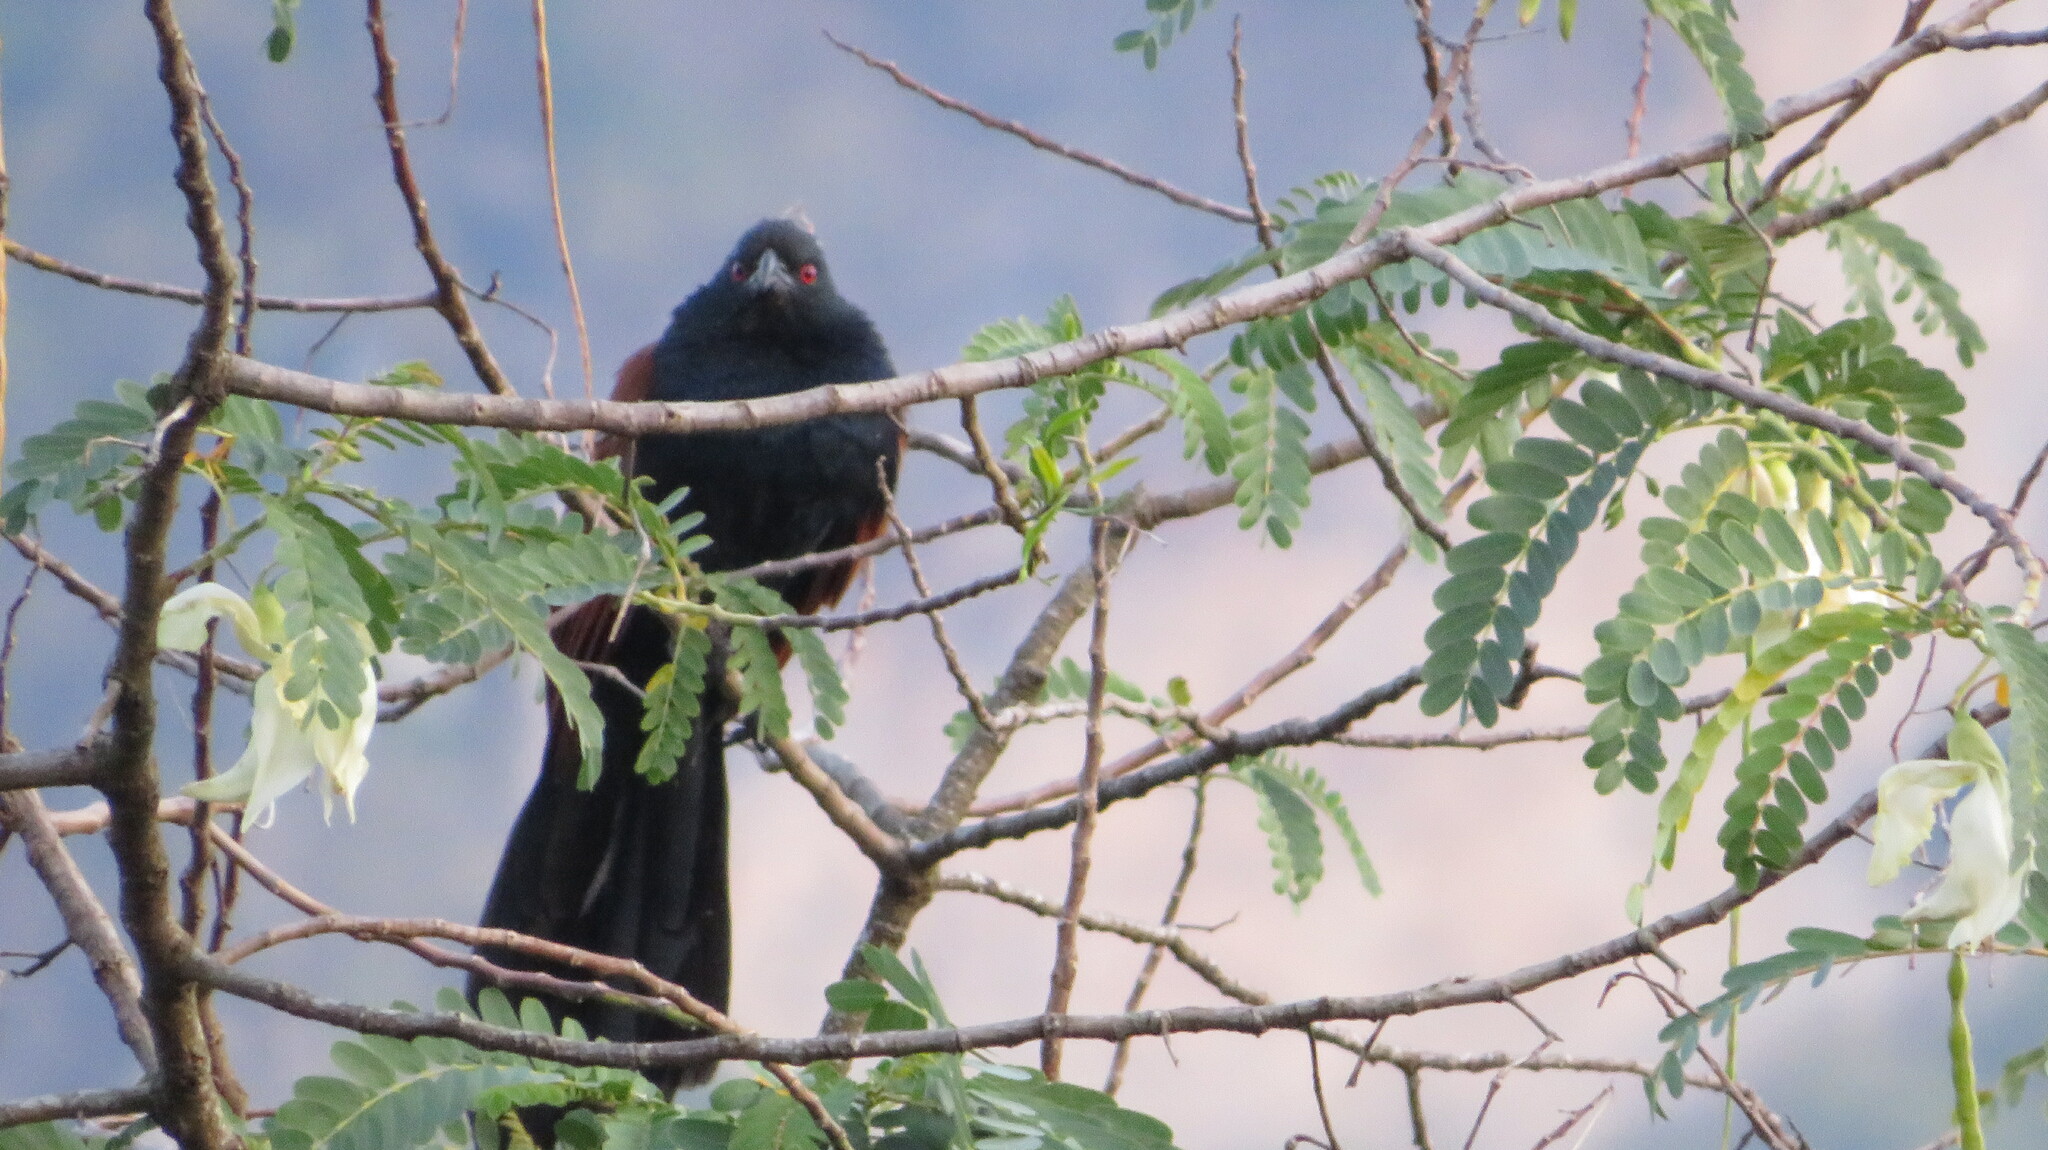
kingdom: Animalia
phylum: Chordata
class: Aves
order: Cuculiformes
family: Cuculidae
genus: Centropus
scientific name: Centropus sinensis
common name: Greater coucal
